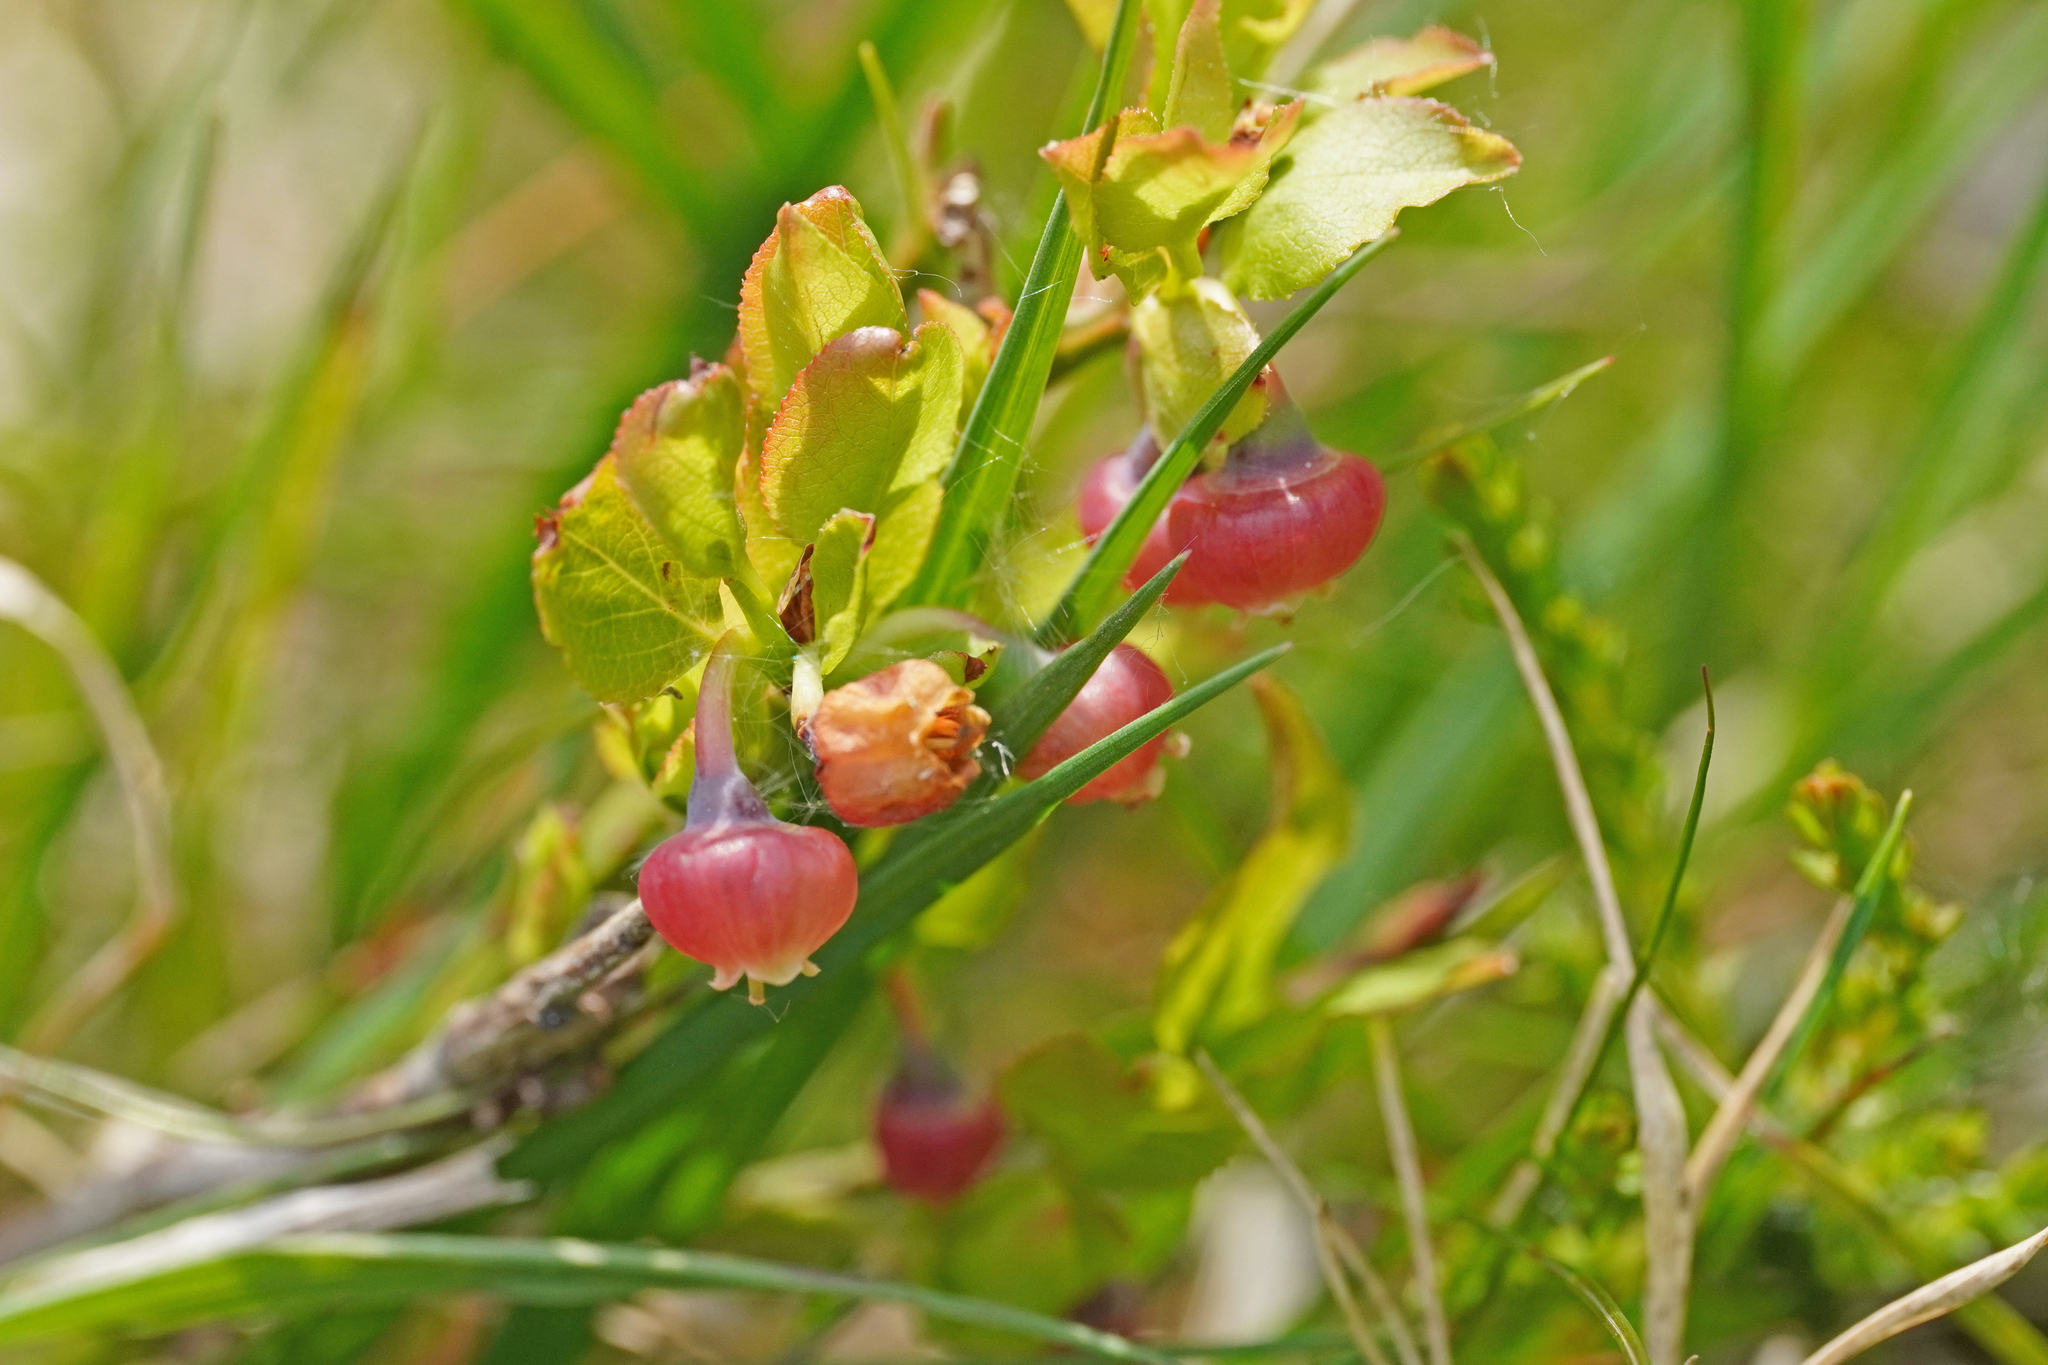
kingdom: Plantae
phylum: Tracheophyta
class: Magnoliopsida
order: Ericales
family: Ericaceae
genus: Vaccinium
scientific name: Vaccinium myrtillus
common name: Bilberry
